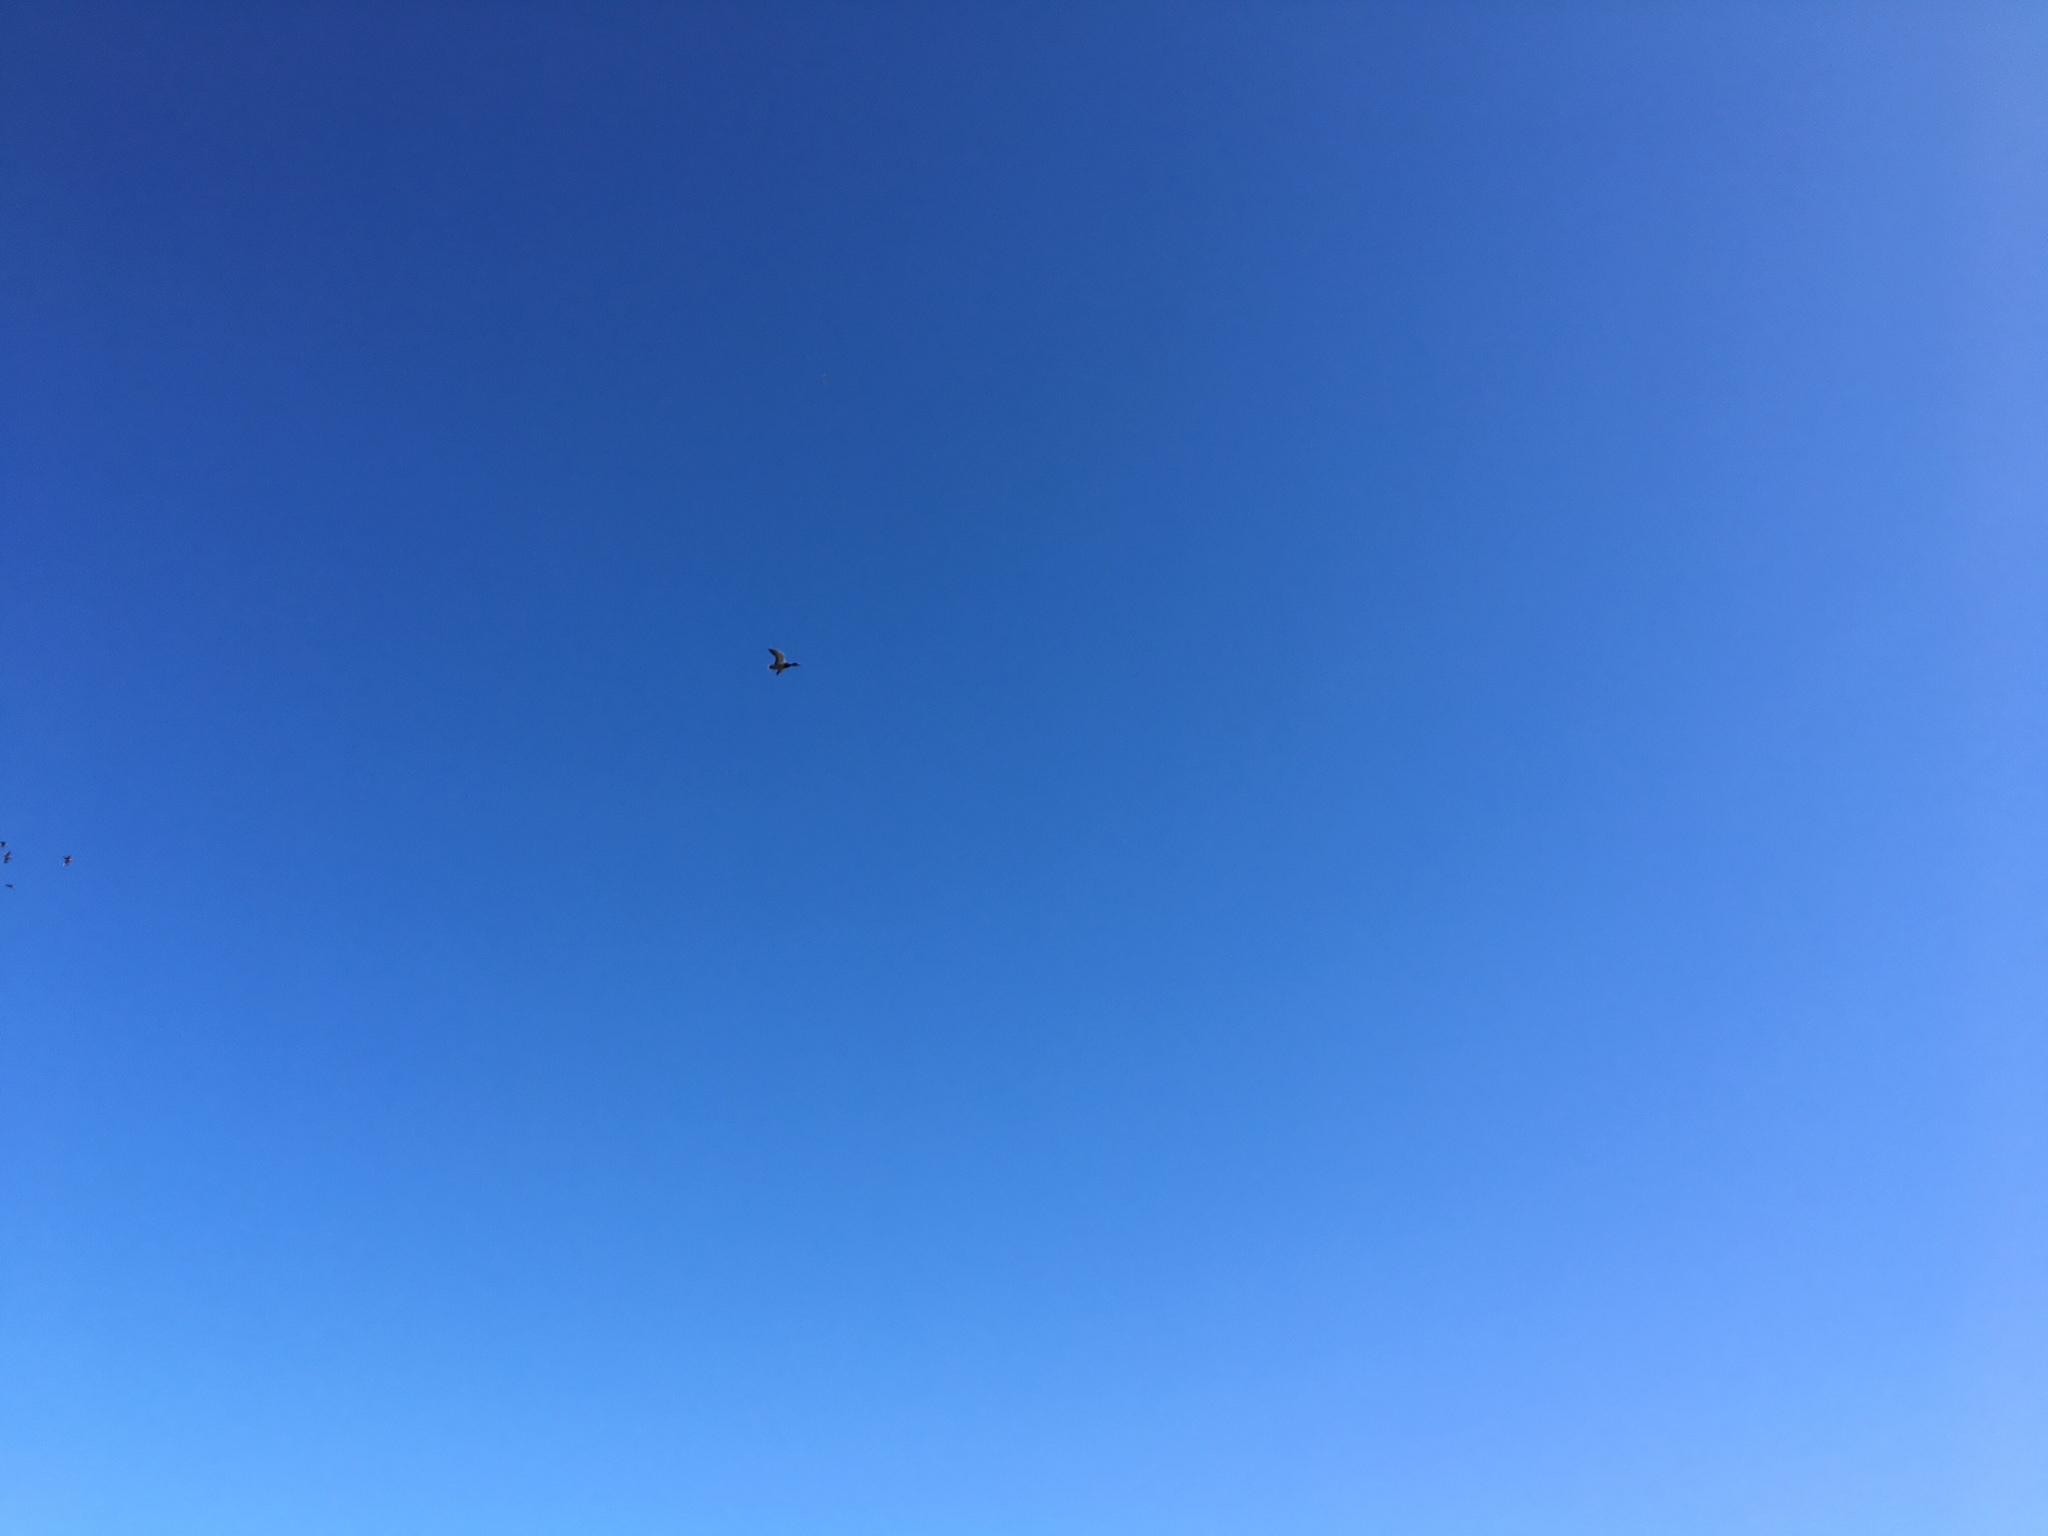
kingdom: Animalia
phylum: Chordata
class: Aves
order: Anseriformes
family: Anatidae
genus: Anas
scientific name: Anas platyrhynchos
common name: Mallard
